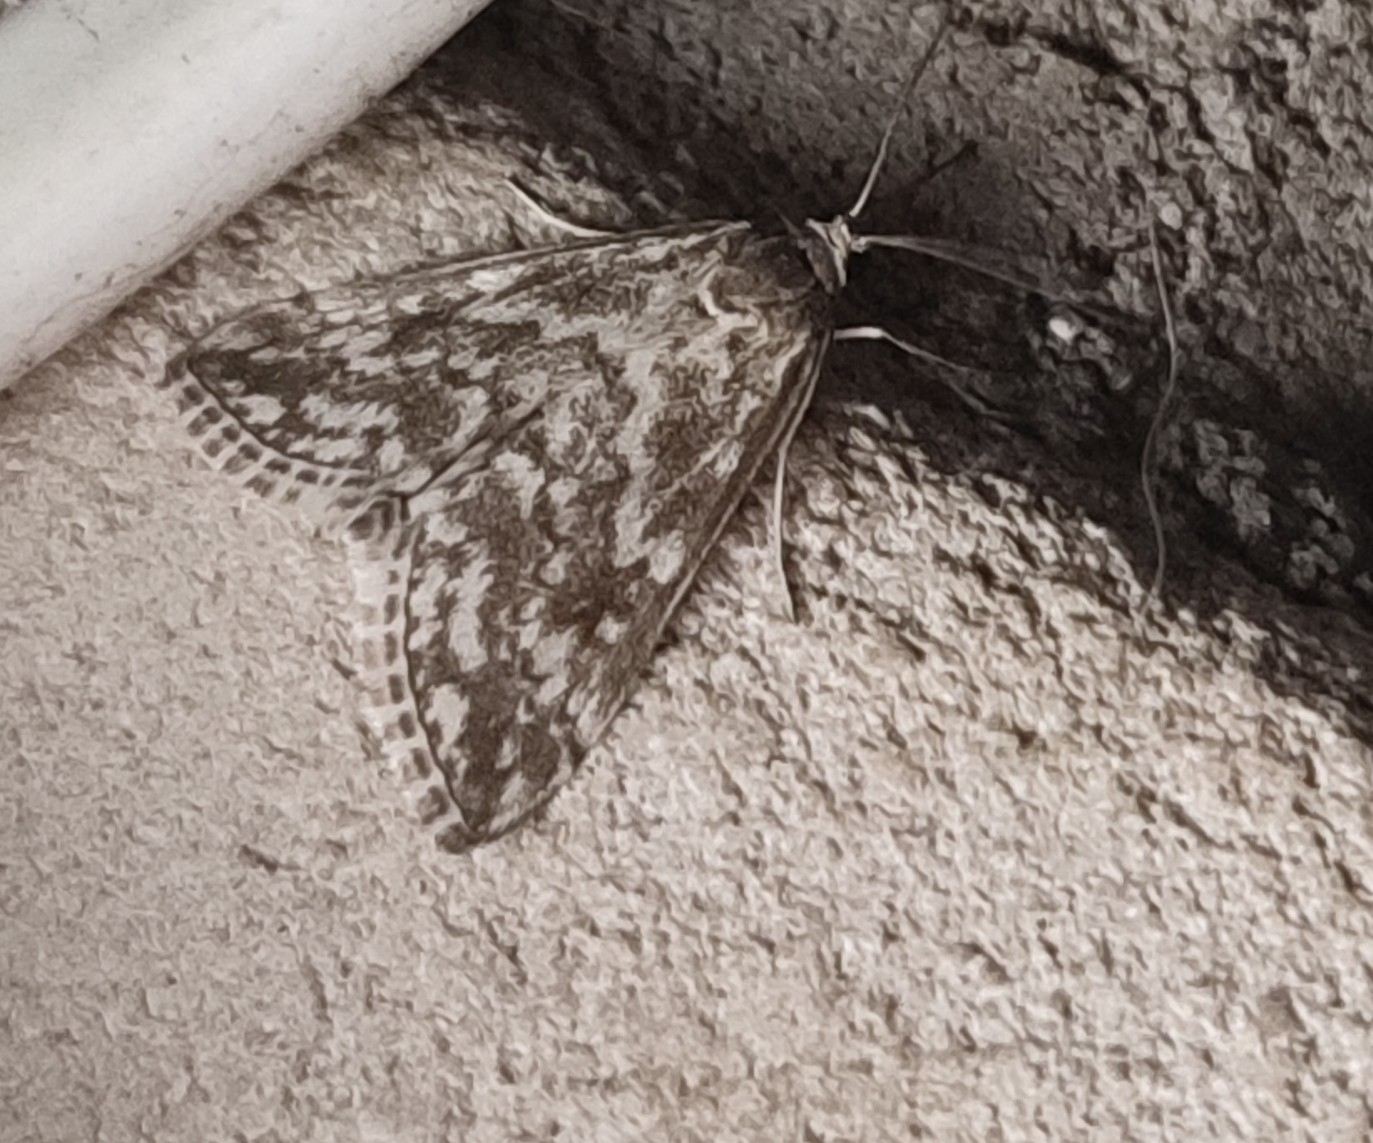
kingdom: Animalia
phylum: Arthropoda
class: Insecta
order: Lepidoptera
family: Crambidae
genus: Evergestis
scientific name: Evergestis frumentalis
